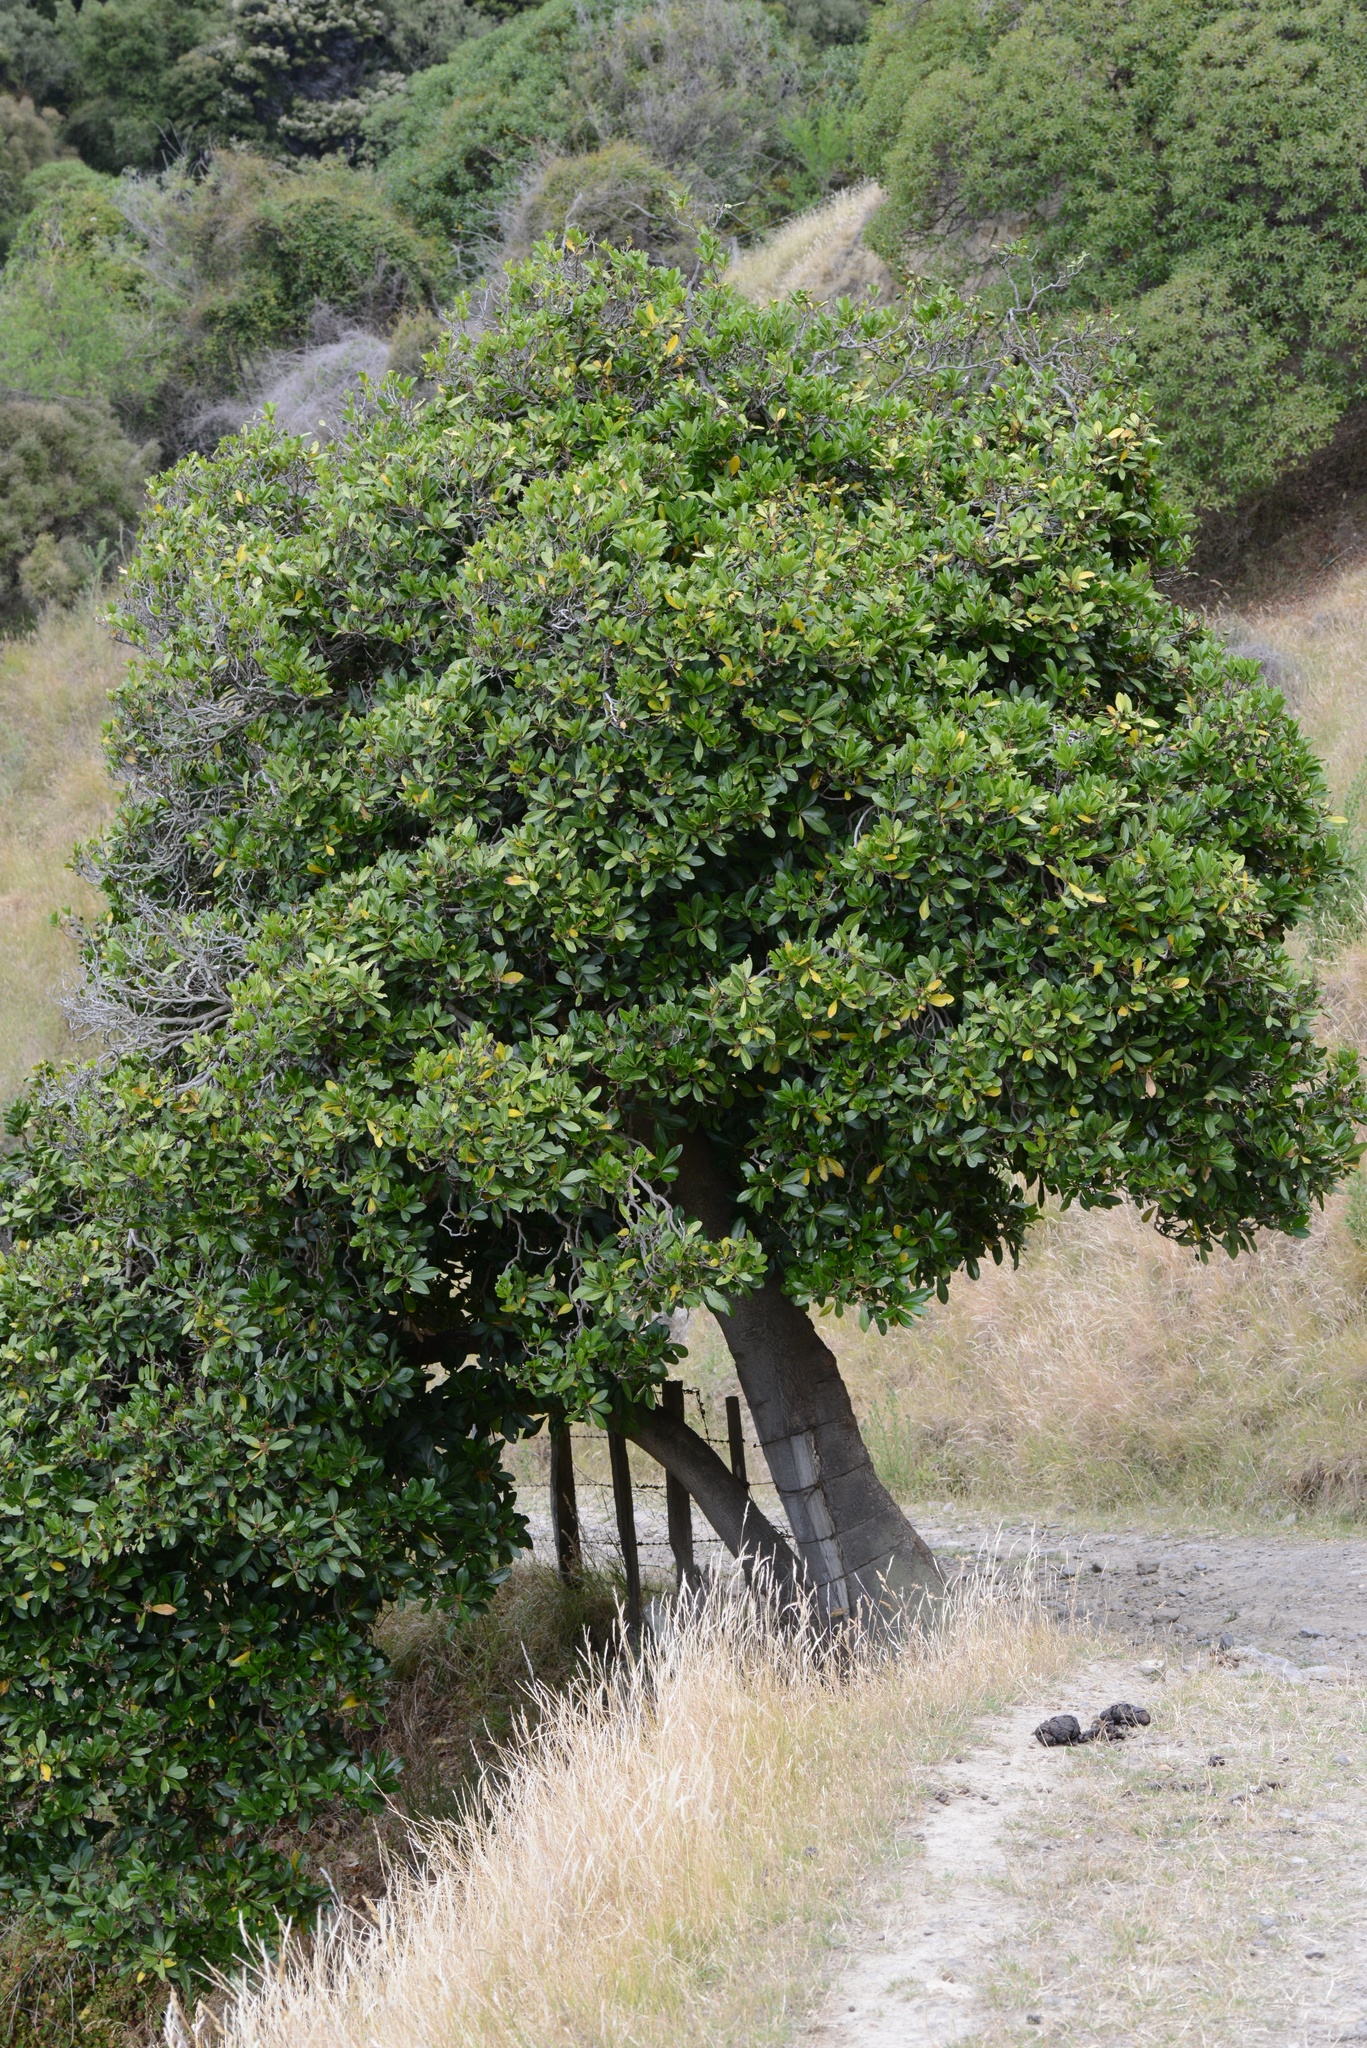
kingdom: Plantae
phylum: Tracheophyta
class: Magnoliopsida
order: Cucurbitales
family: Corynocarpaceae
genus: Corynocarpus
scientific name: Corynocarpus laevigatus
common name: New zealand laurel
